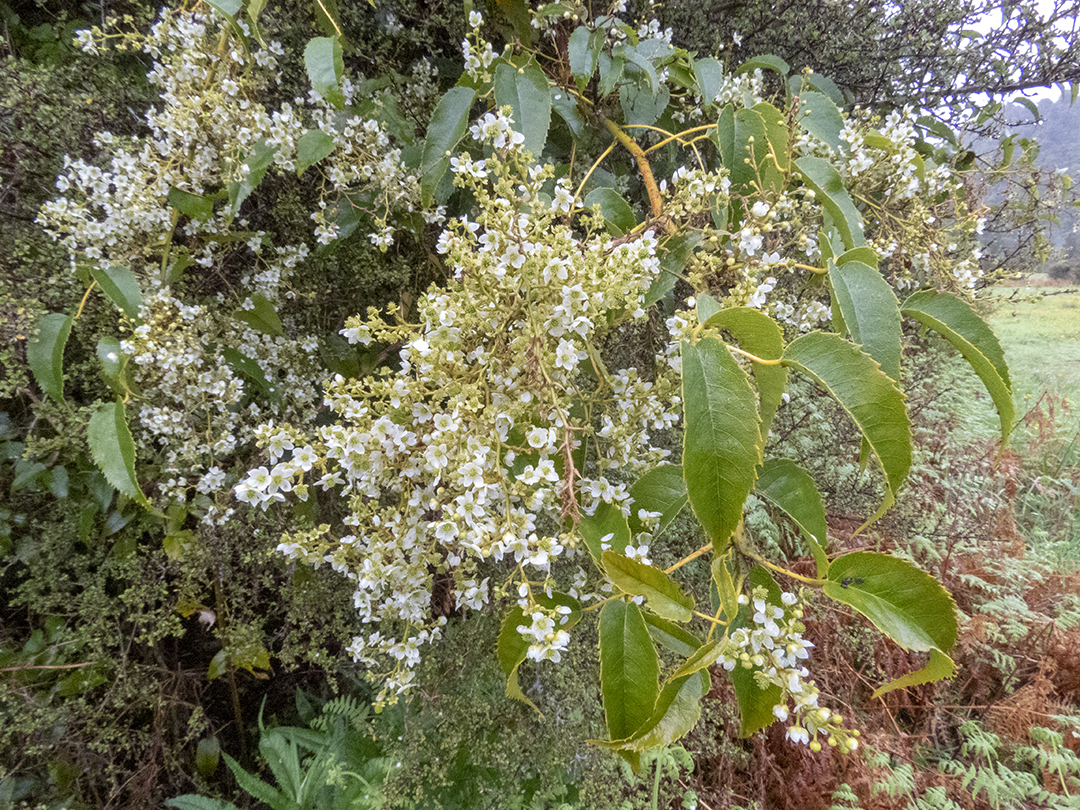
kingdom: Plantae
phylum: Tracheophyta
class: Magnoliopsida
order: Rosales
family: Rosaceae
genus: Rubus
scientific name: Rubus cissoides
